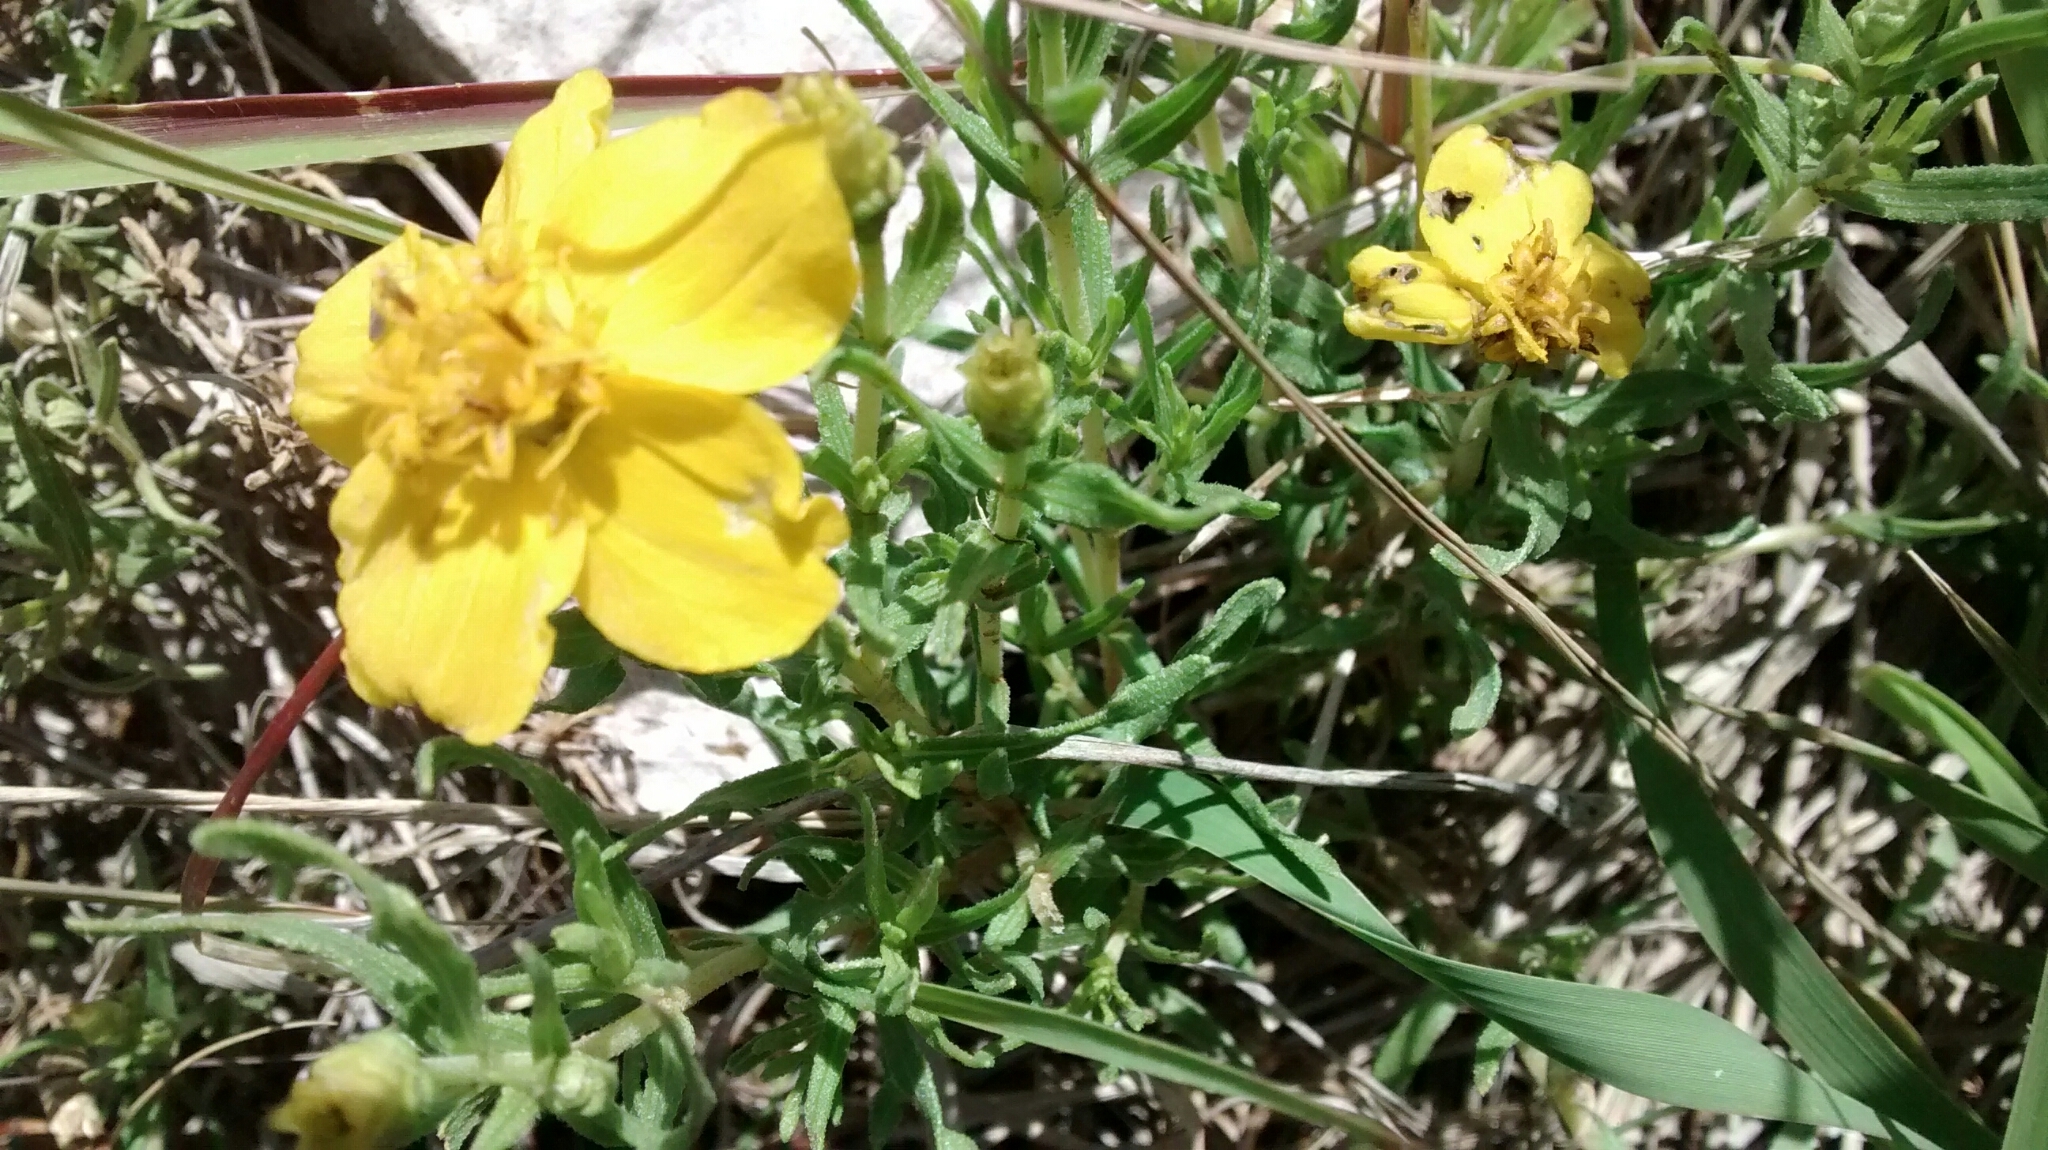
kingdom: Plantae
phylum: Tracheophyta
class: Magnoliopsida
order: Asterales
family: Asteraceae
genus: Zinnia
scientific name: Zinnia grandiflora
